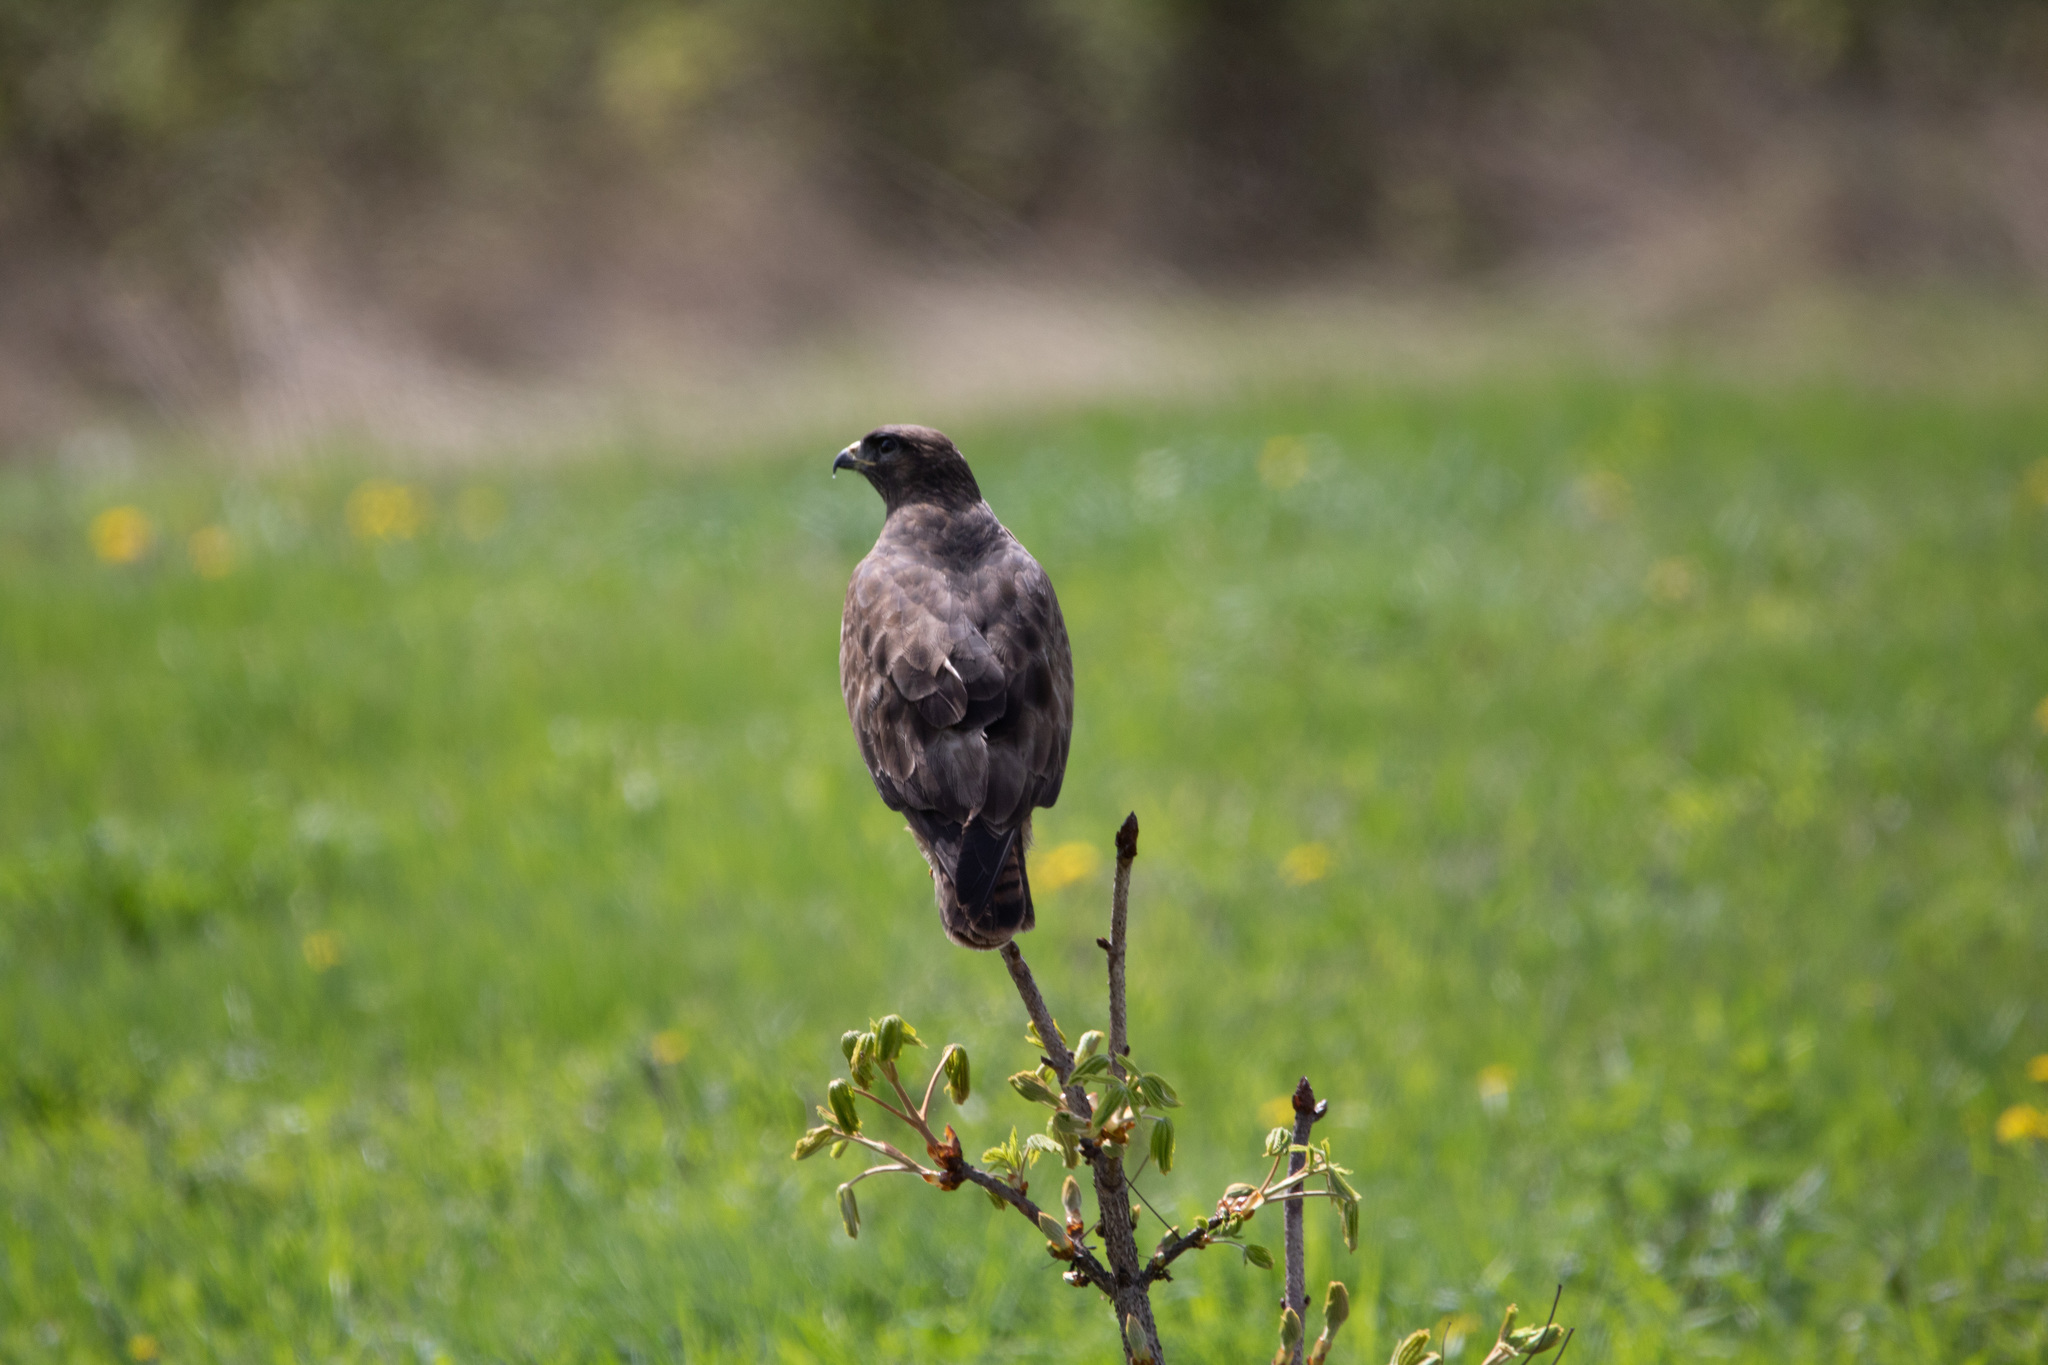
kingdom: Animalia
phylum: Chordata
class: Aves
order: Accipitriformes
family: Accipitridae
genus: Buteo
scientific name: Buteo buteo
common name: Common buzzard
